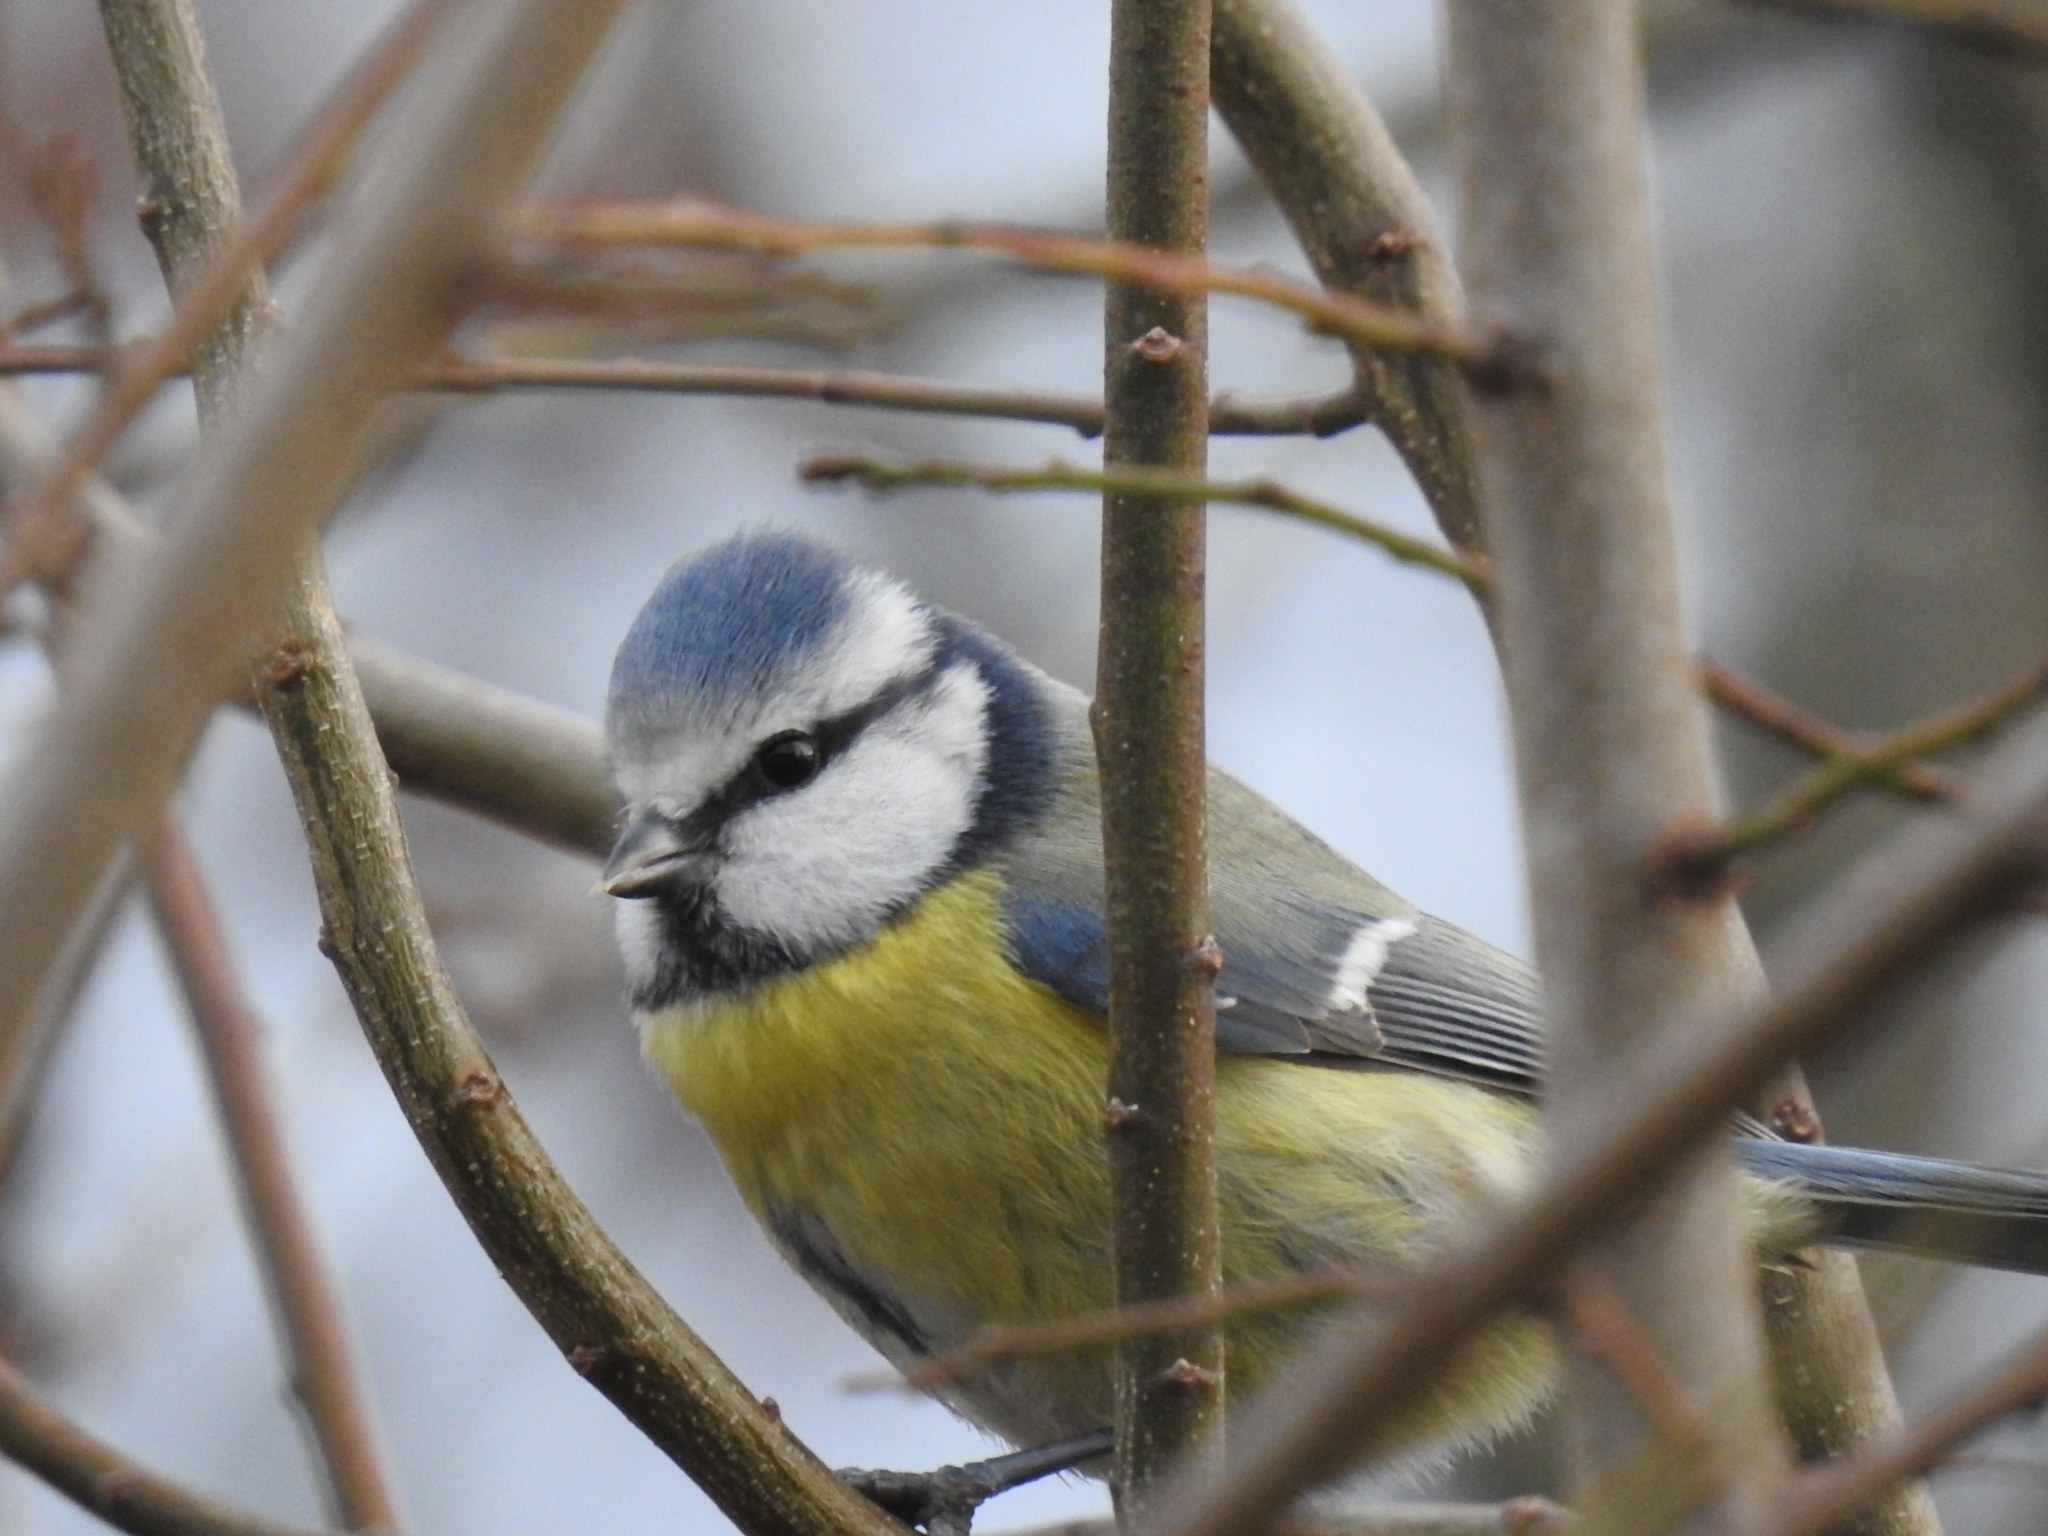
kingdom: Animalia
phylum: Chordata
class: Aves
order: Passeriformes
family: Paridae
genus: Cyanistes
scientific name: Cyanistes caeruleus
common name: Eurasian blue tit
